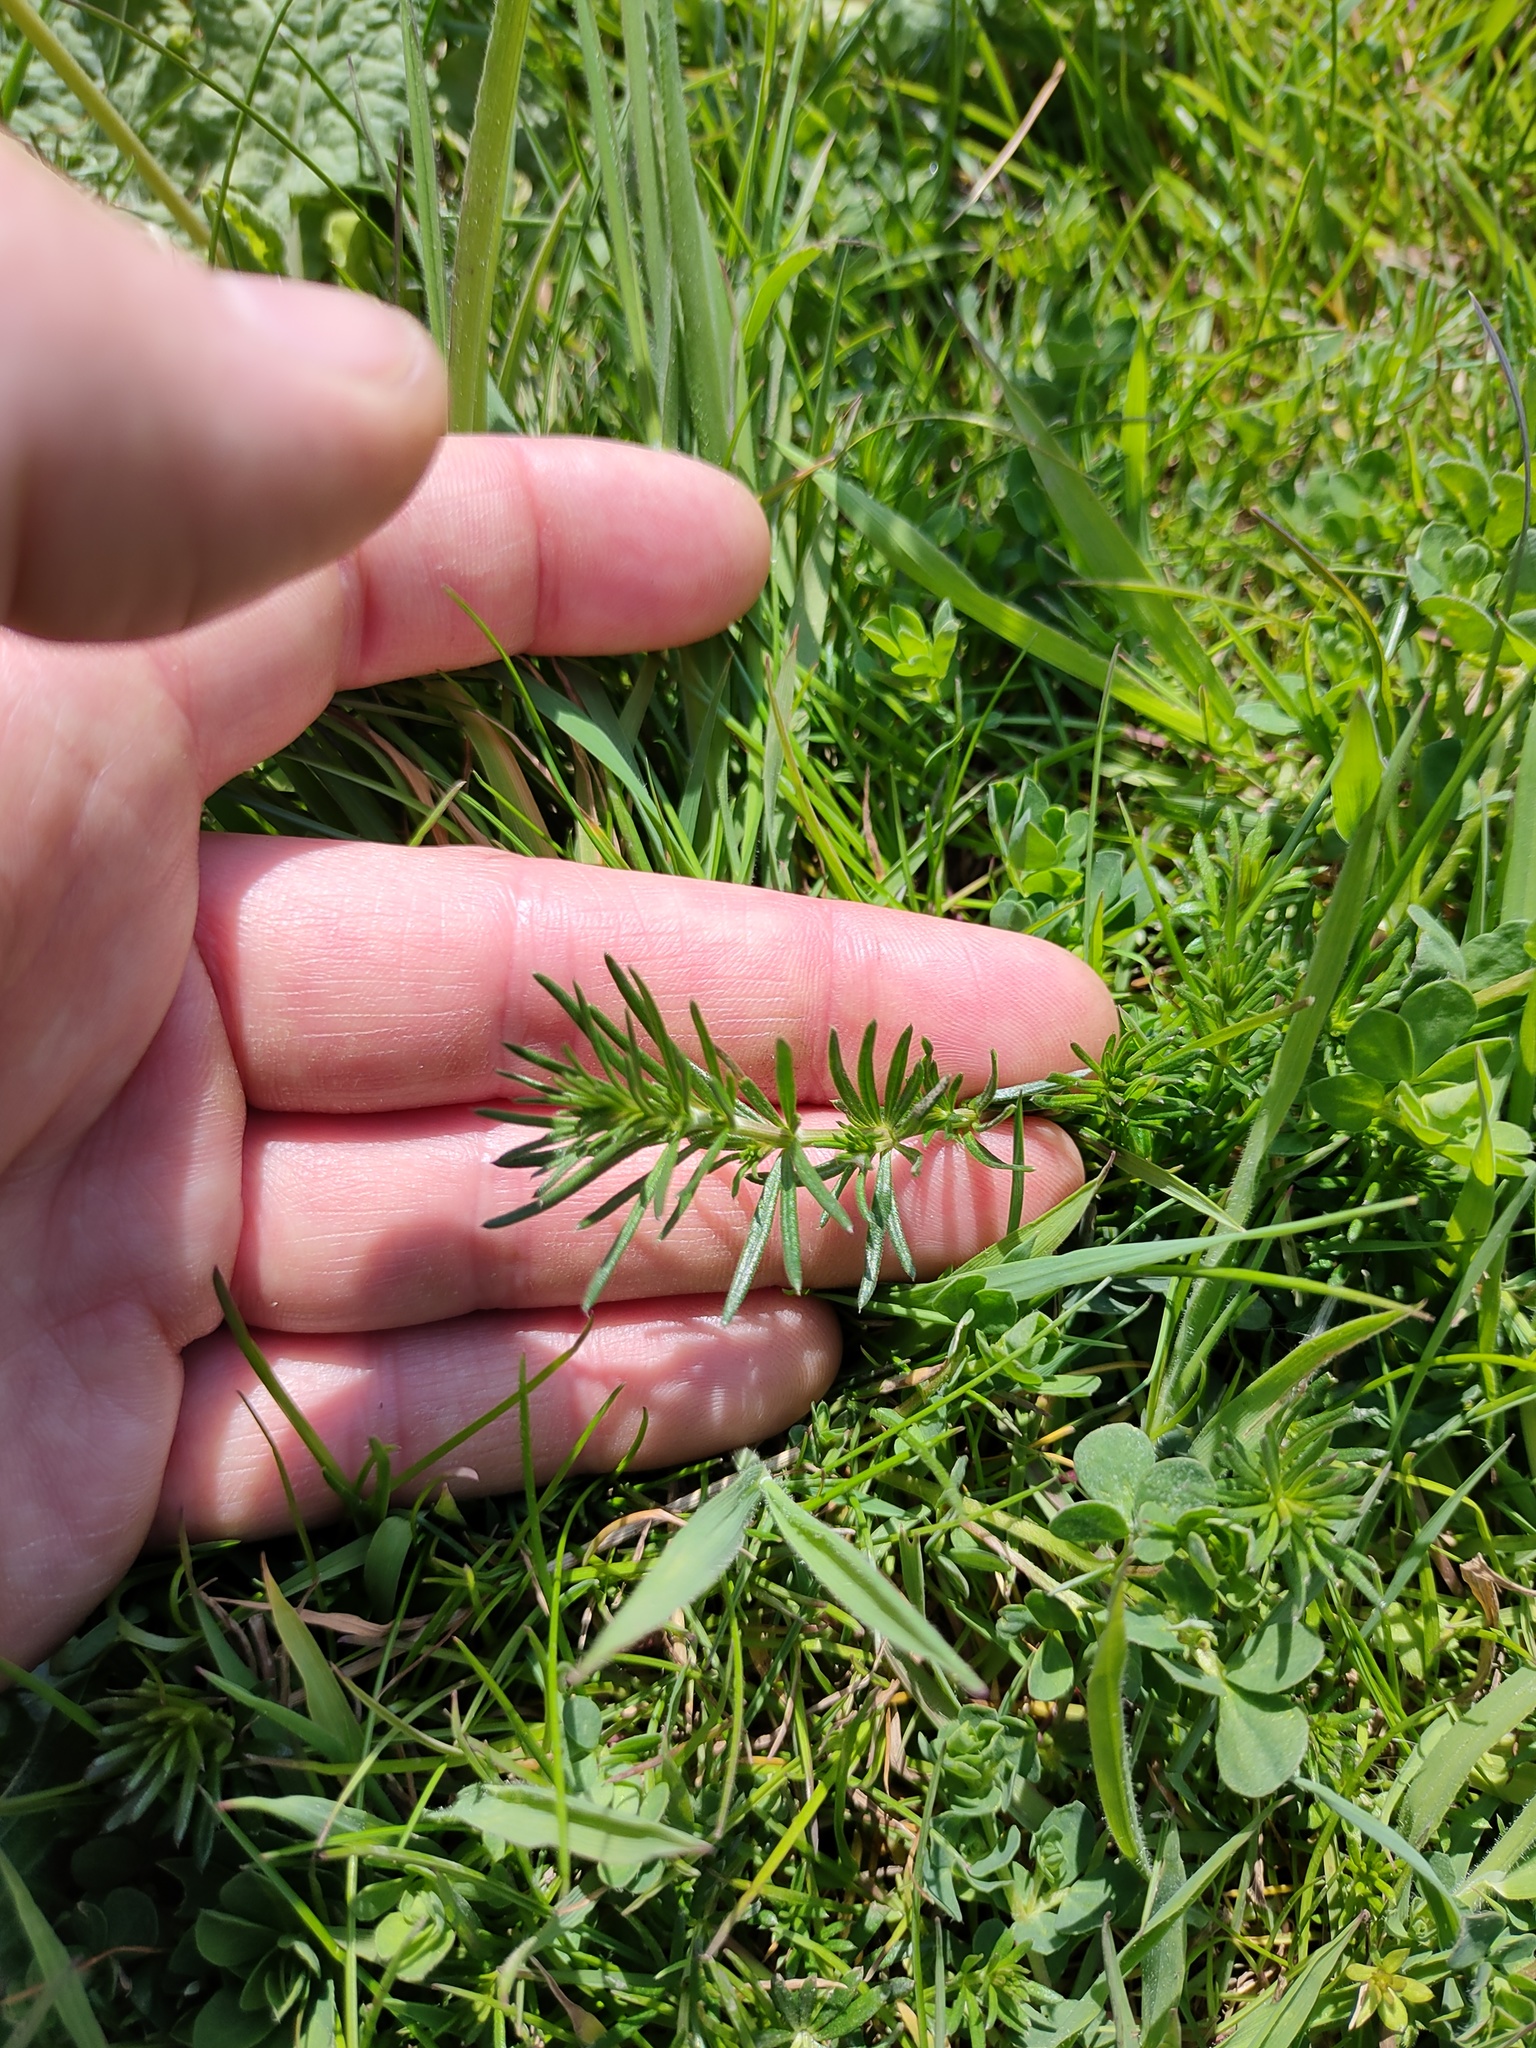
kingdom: Plantae
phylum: Tracheophyta
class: Magnoliopsida
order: Gentianales
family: Rubiaceae
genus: Galium
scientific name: Galium verum
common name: Lady's bedstraw
